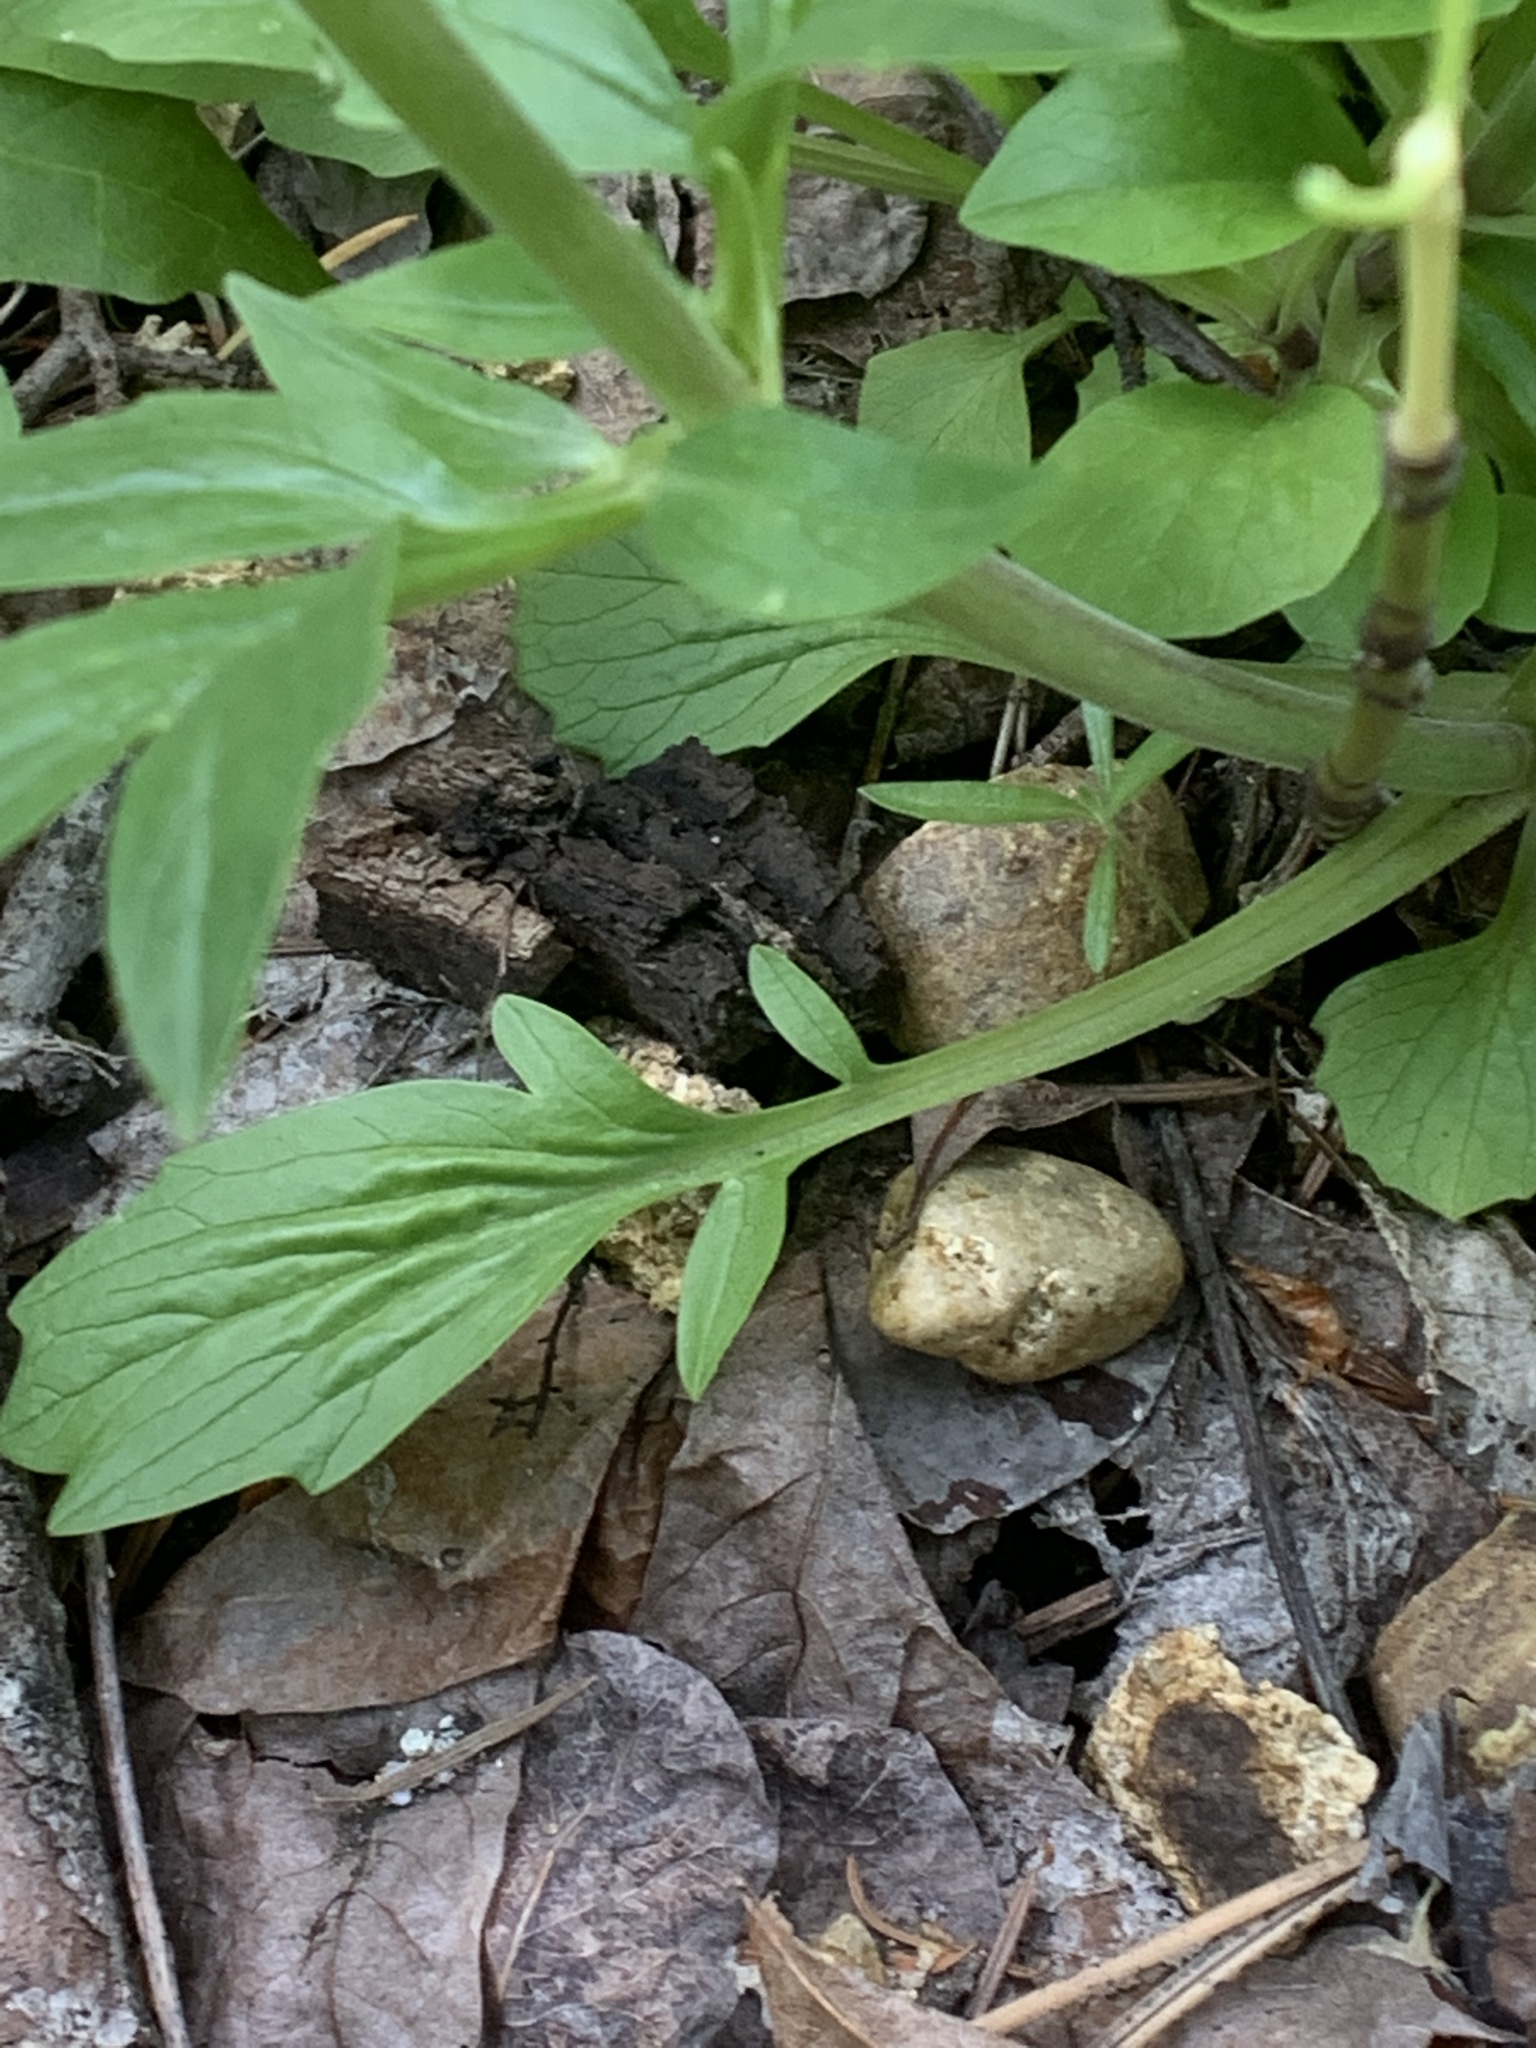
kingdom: Plantae
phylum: Tracheophyta
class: Magnoliopsida
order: Dipsacales
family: Caprifoliaceae
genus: Valeriana
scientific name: Valeriana columbiana
